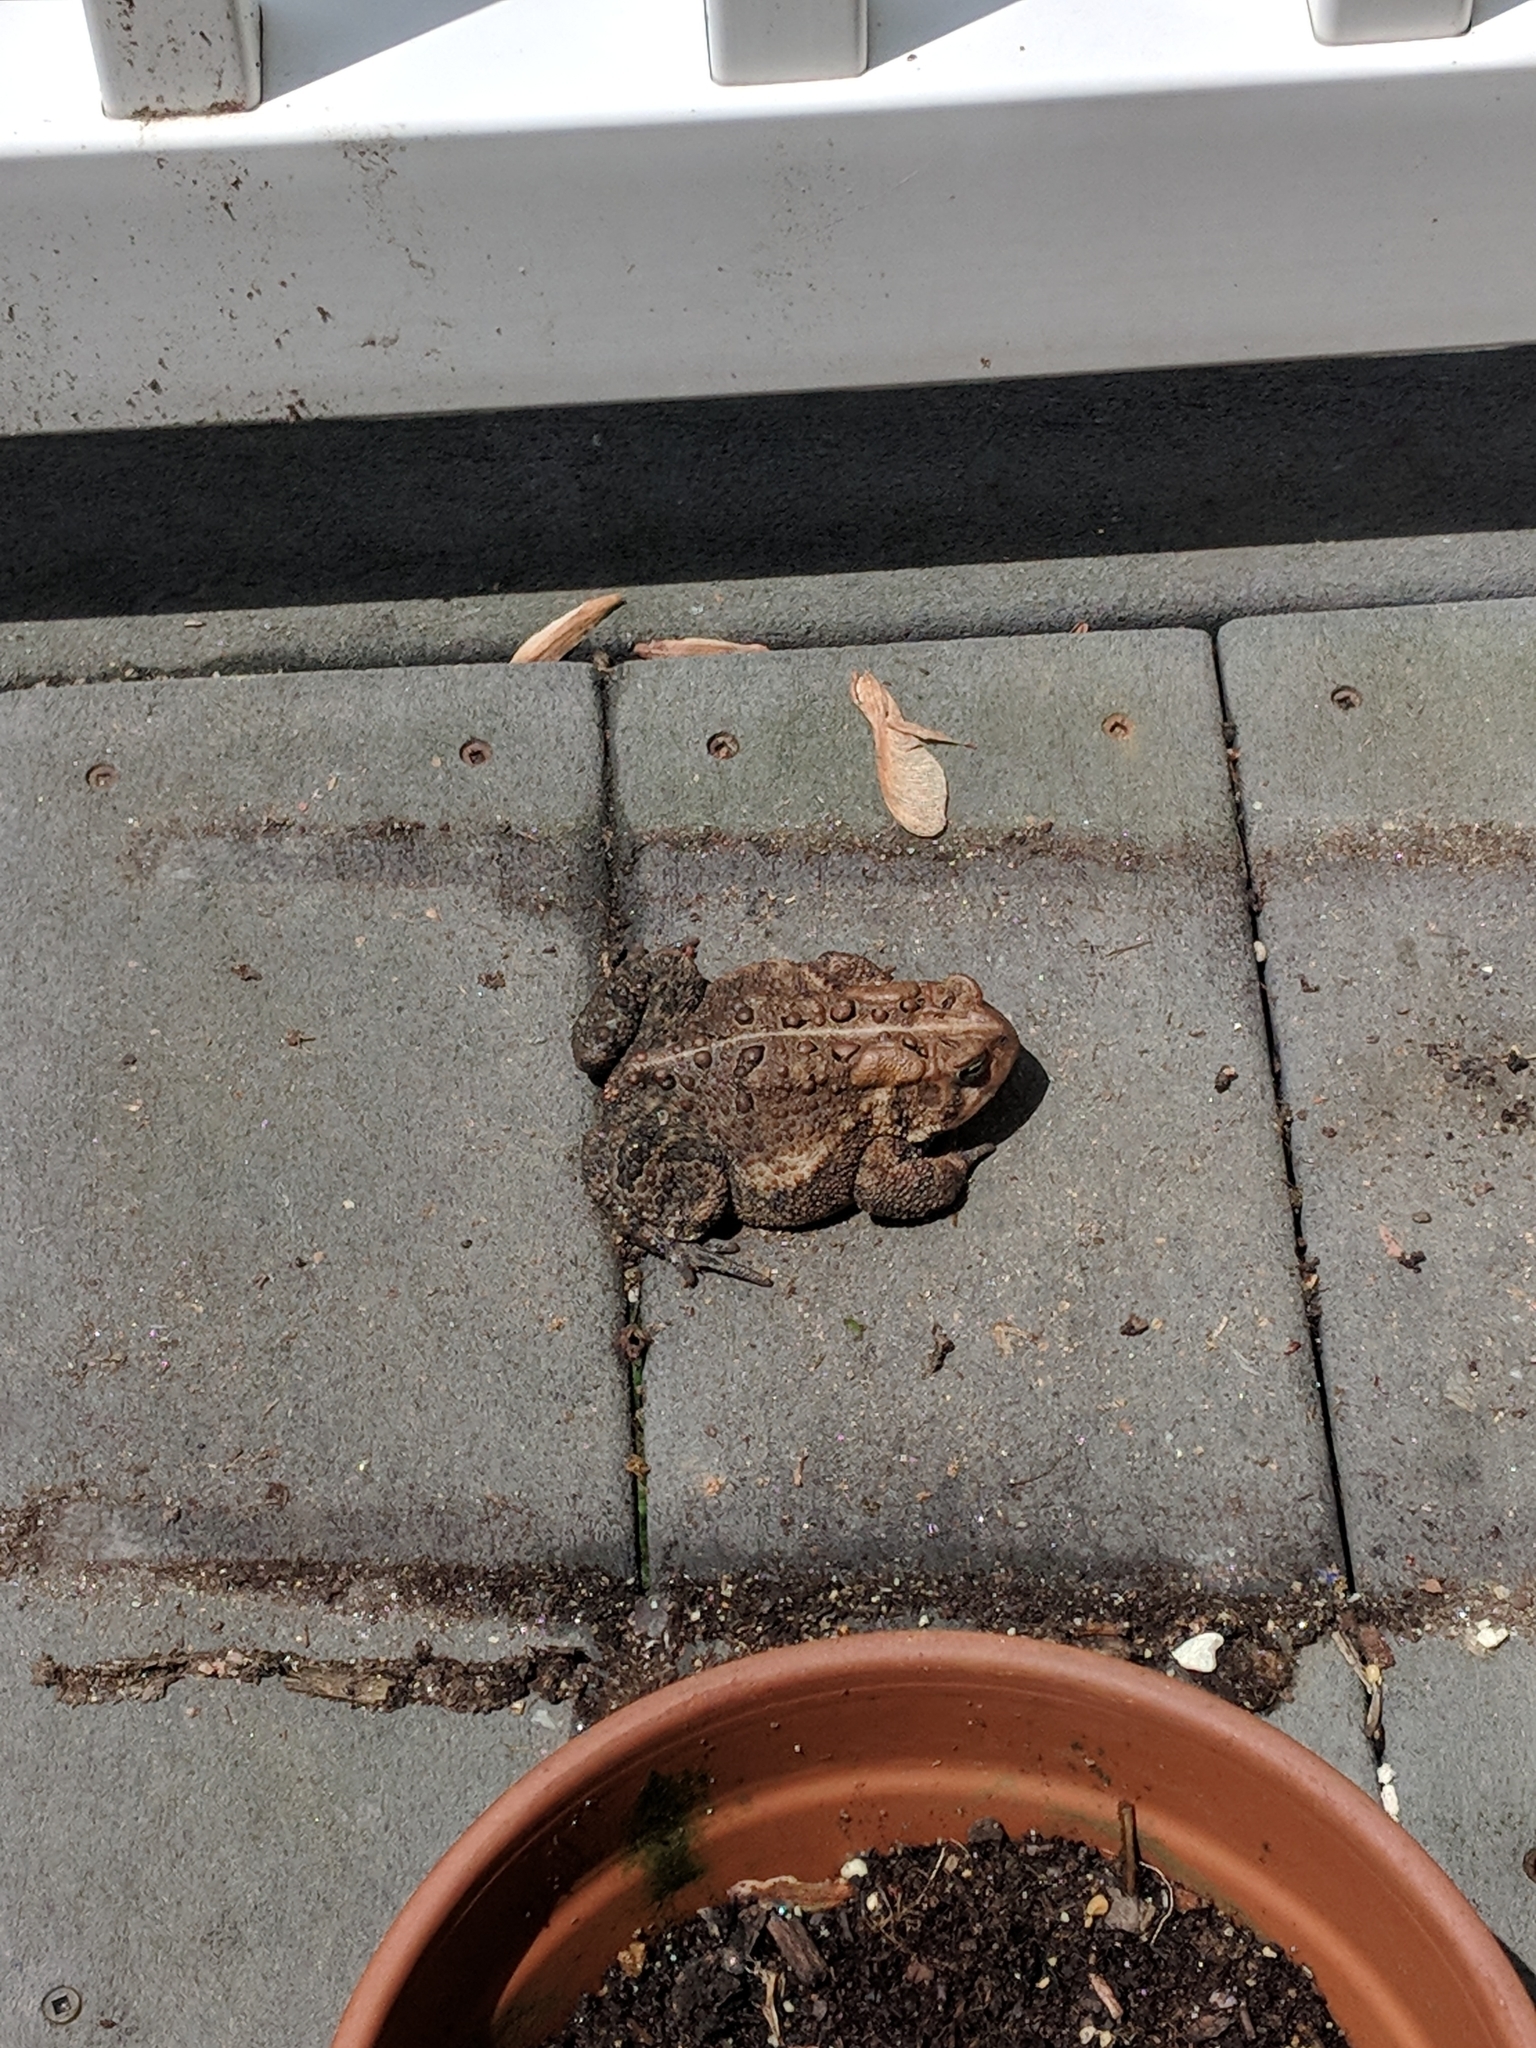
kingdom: Animalia
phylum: Chordata
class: Amphibia
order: Anura
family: Bufonidae
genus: Anaxyrus
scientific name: Anaxyrus americanus
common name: American toad
